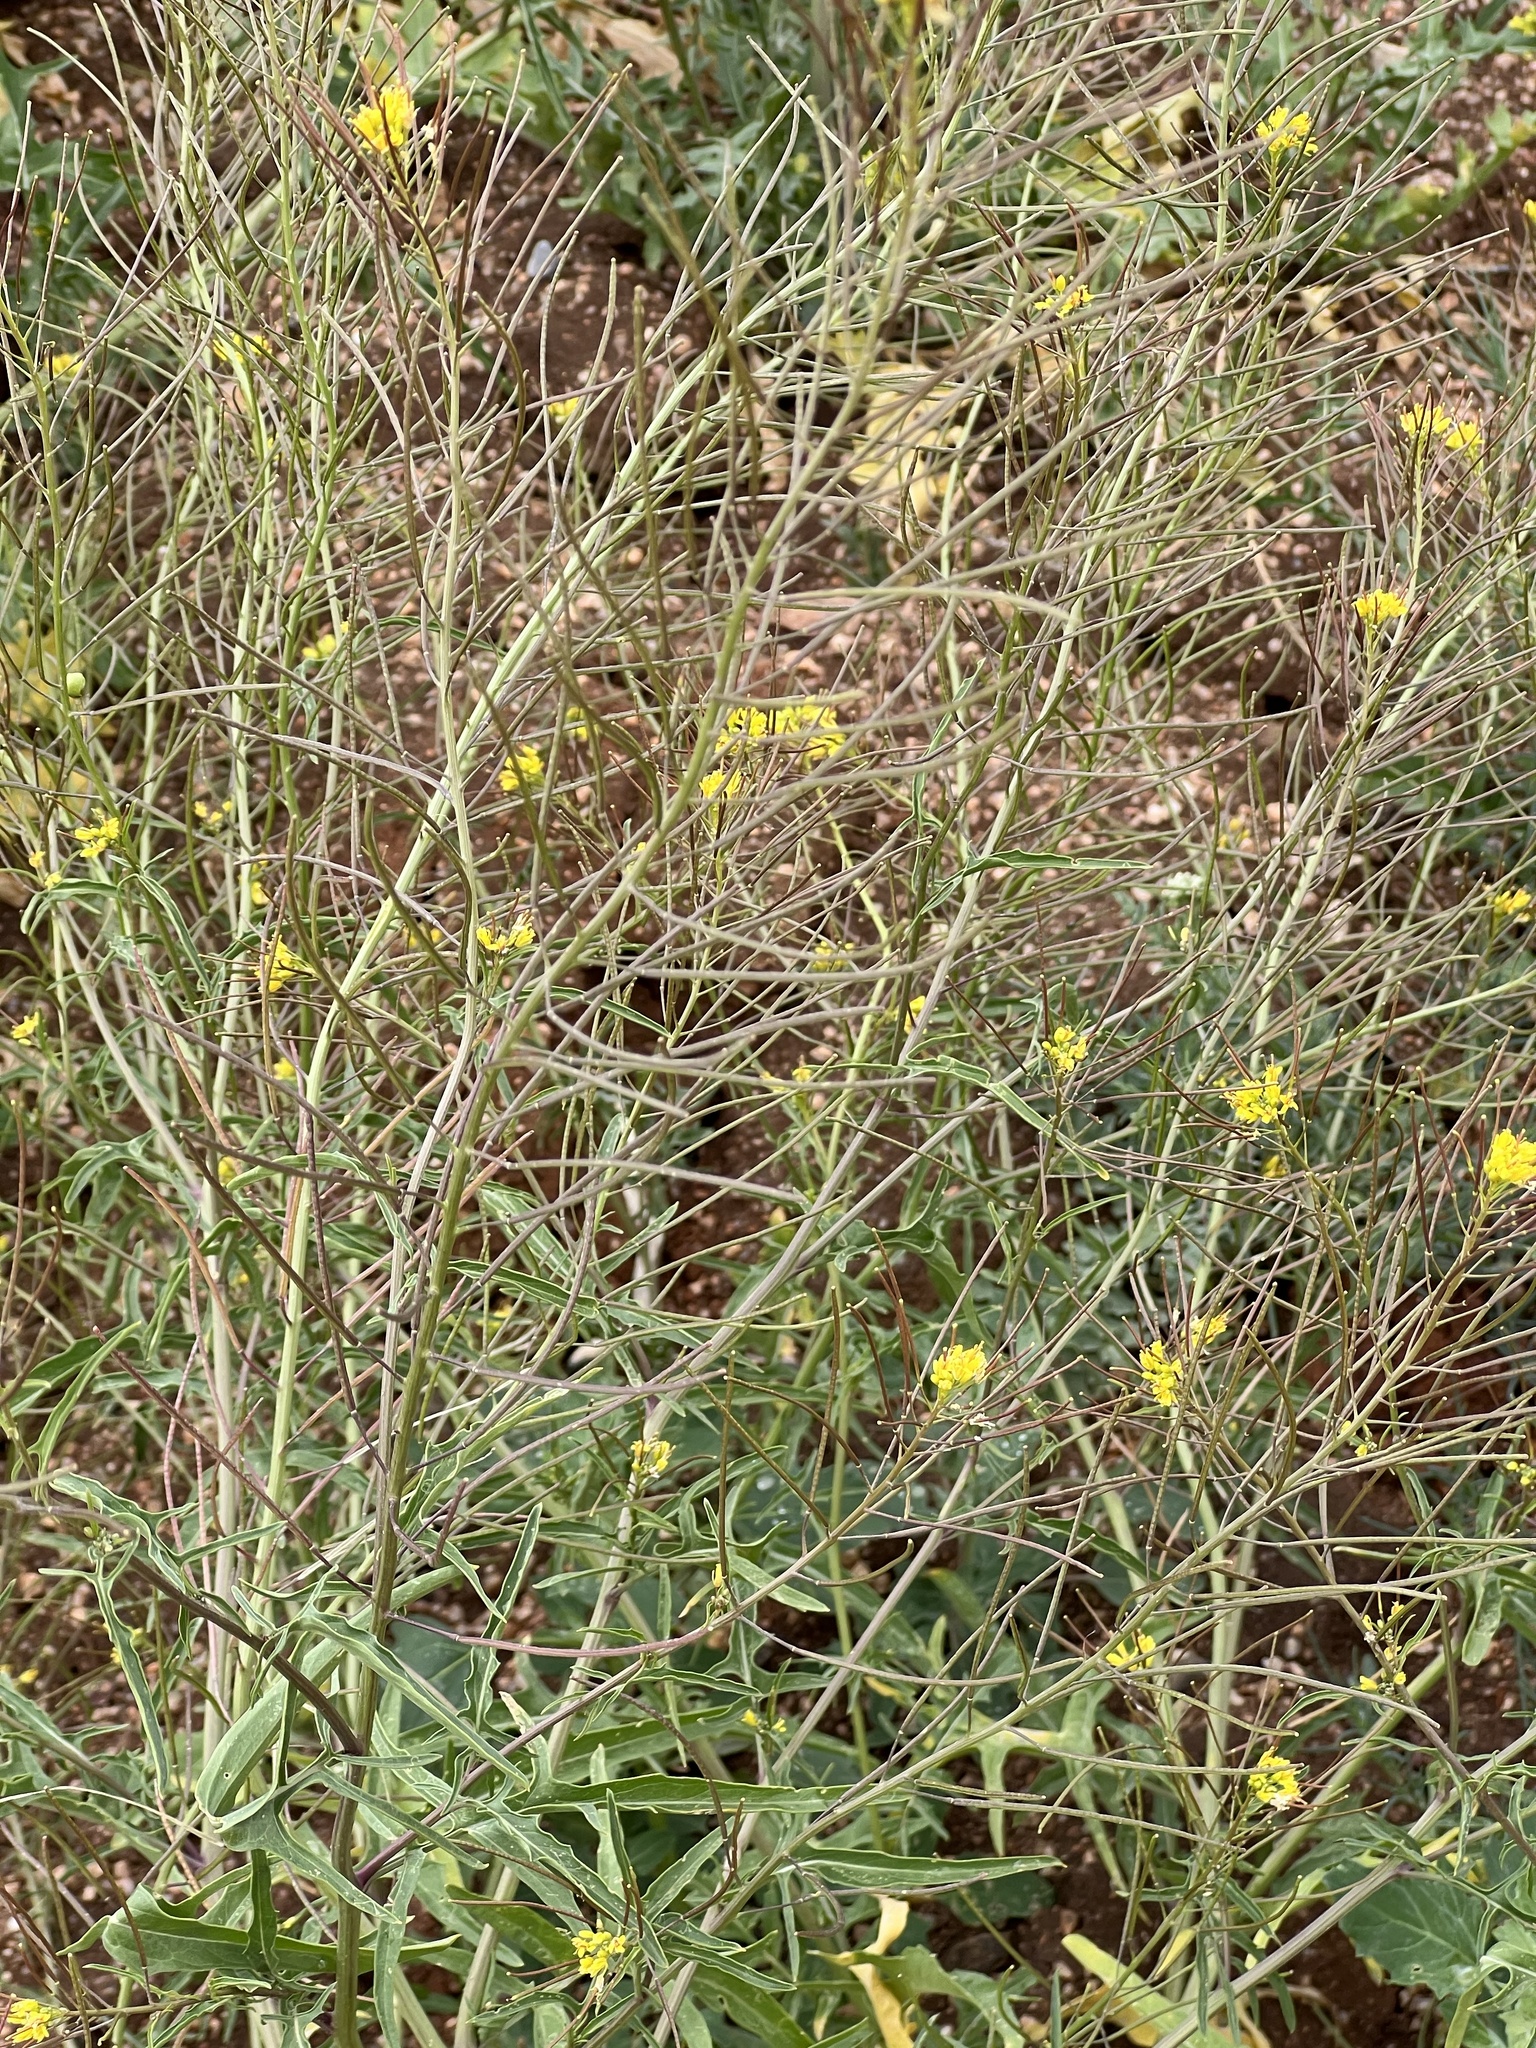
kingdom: Plantae
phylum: Tracheophyta
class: Magnoliopsida
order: Brassicales
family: Brassicaceae
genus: Sisymbrium
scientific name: Sisymbrium irio
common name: London rocket
